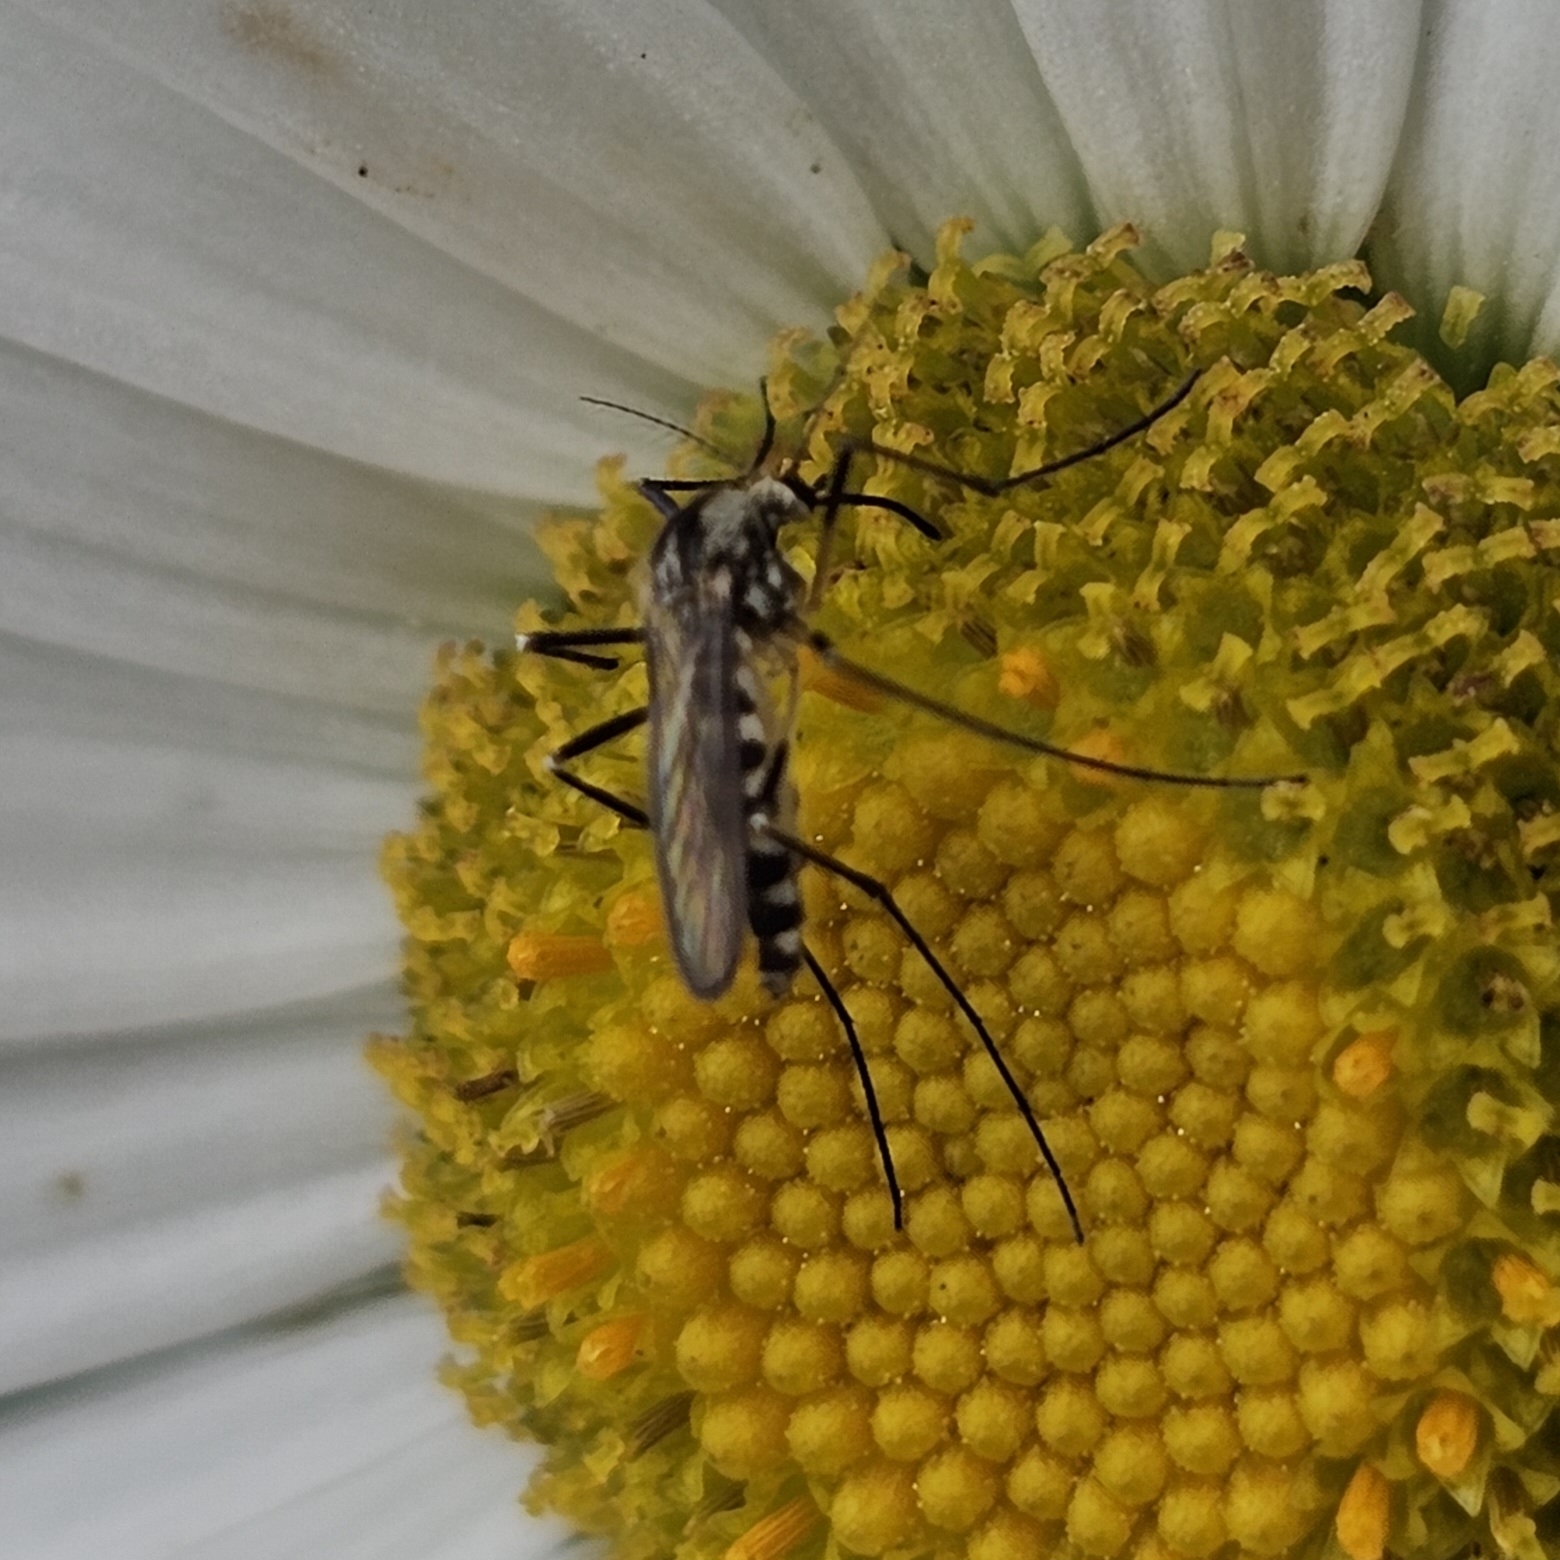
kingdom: Animalia
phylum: Arthropoda
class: Insecta
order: Diptera
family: Culicidae
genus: Aedes
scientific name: Aedes triseriatus
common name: Eastern treehole mosquito
